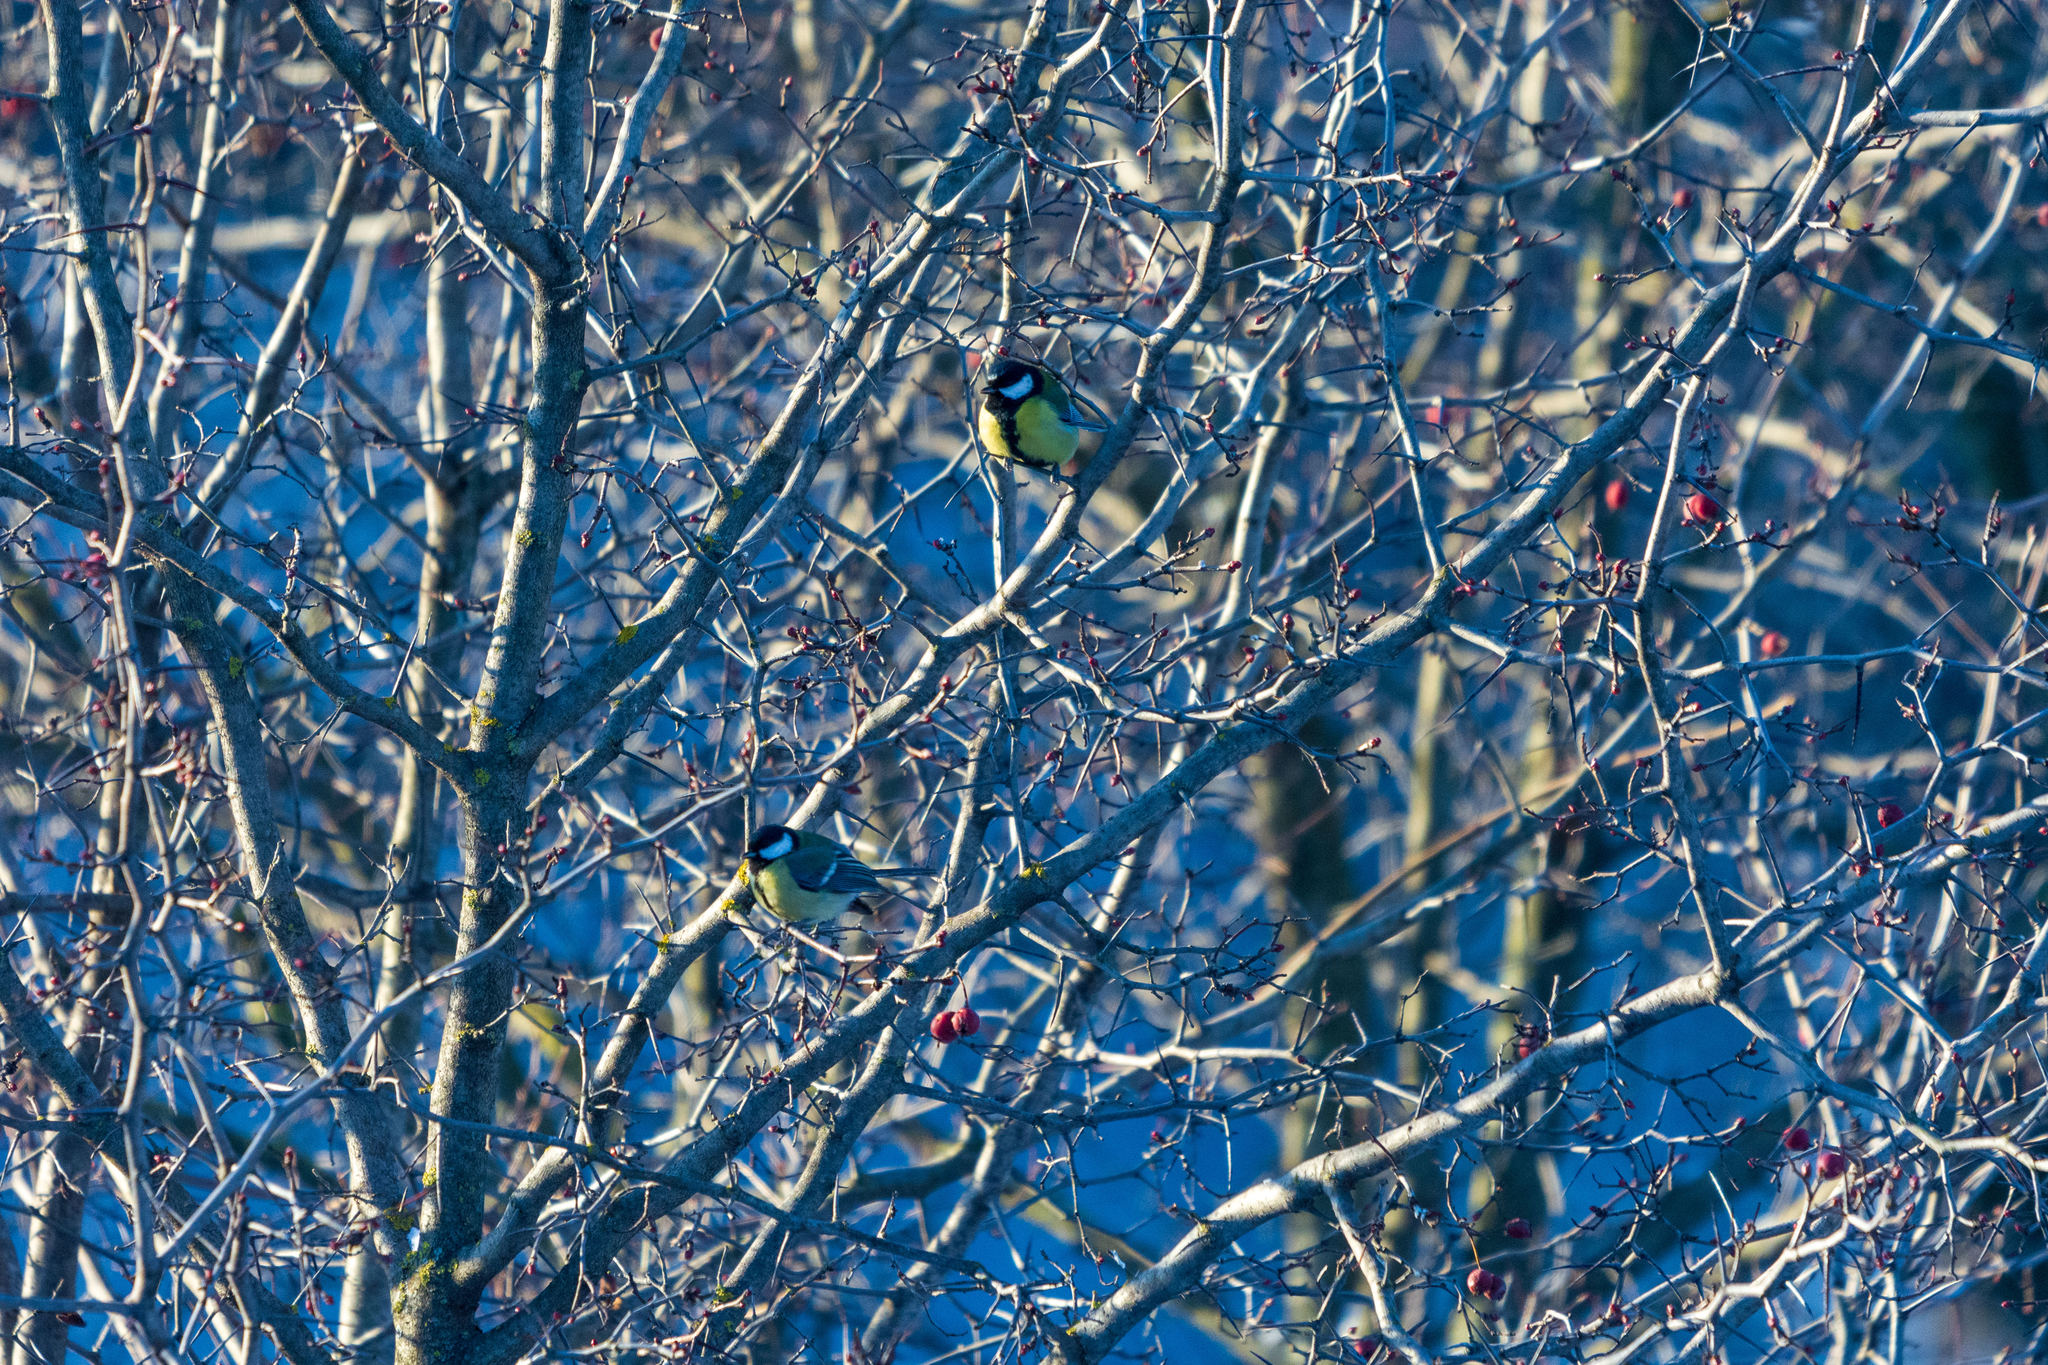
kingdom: Animalia
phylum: Chordata
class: Aves
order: Passeriformes
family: Paridae
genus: Parus
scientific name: Parus major
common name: Great tit
